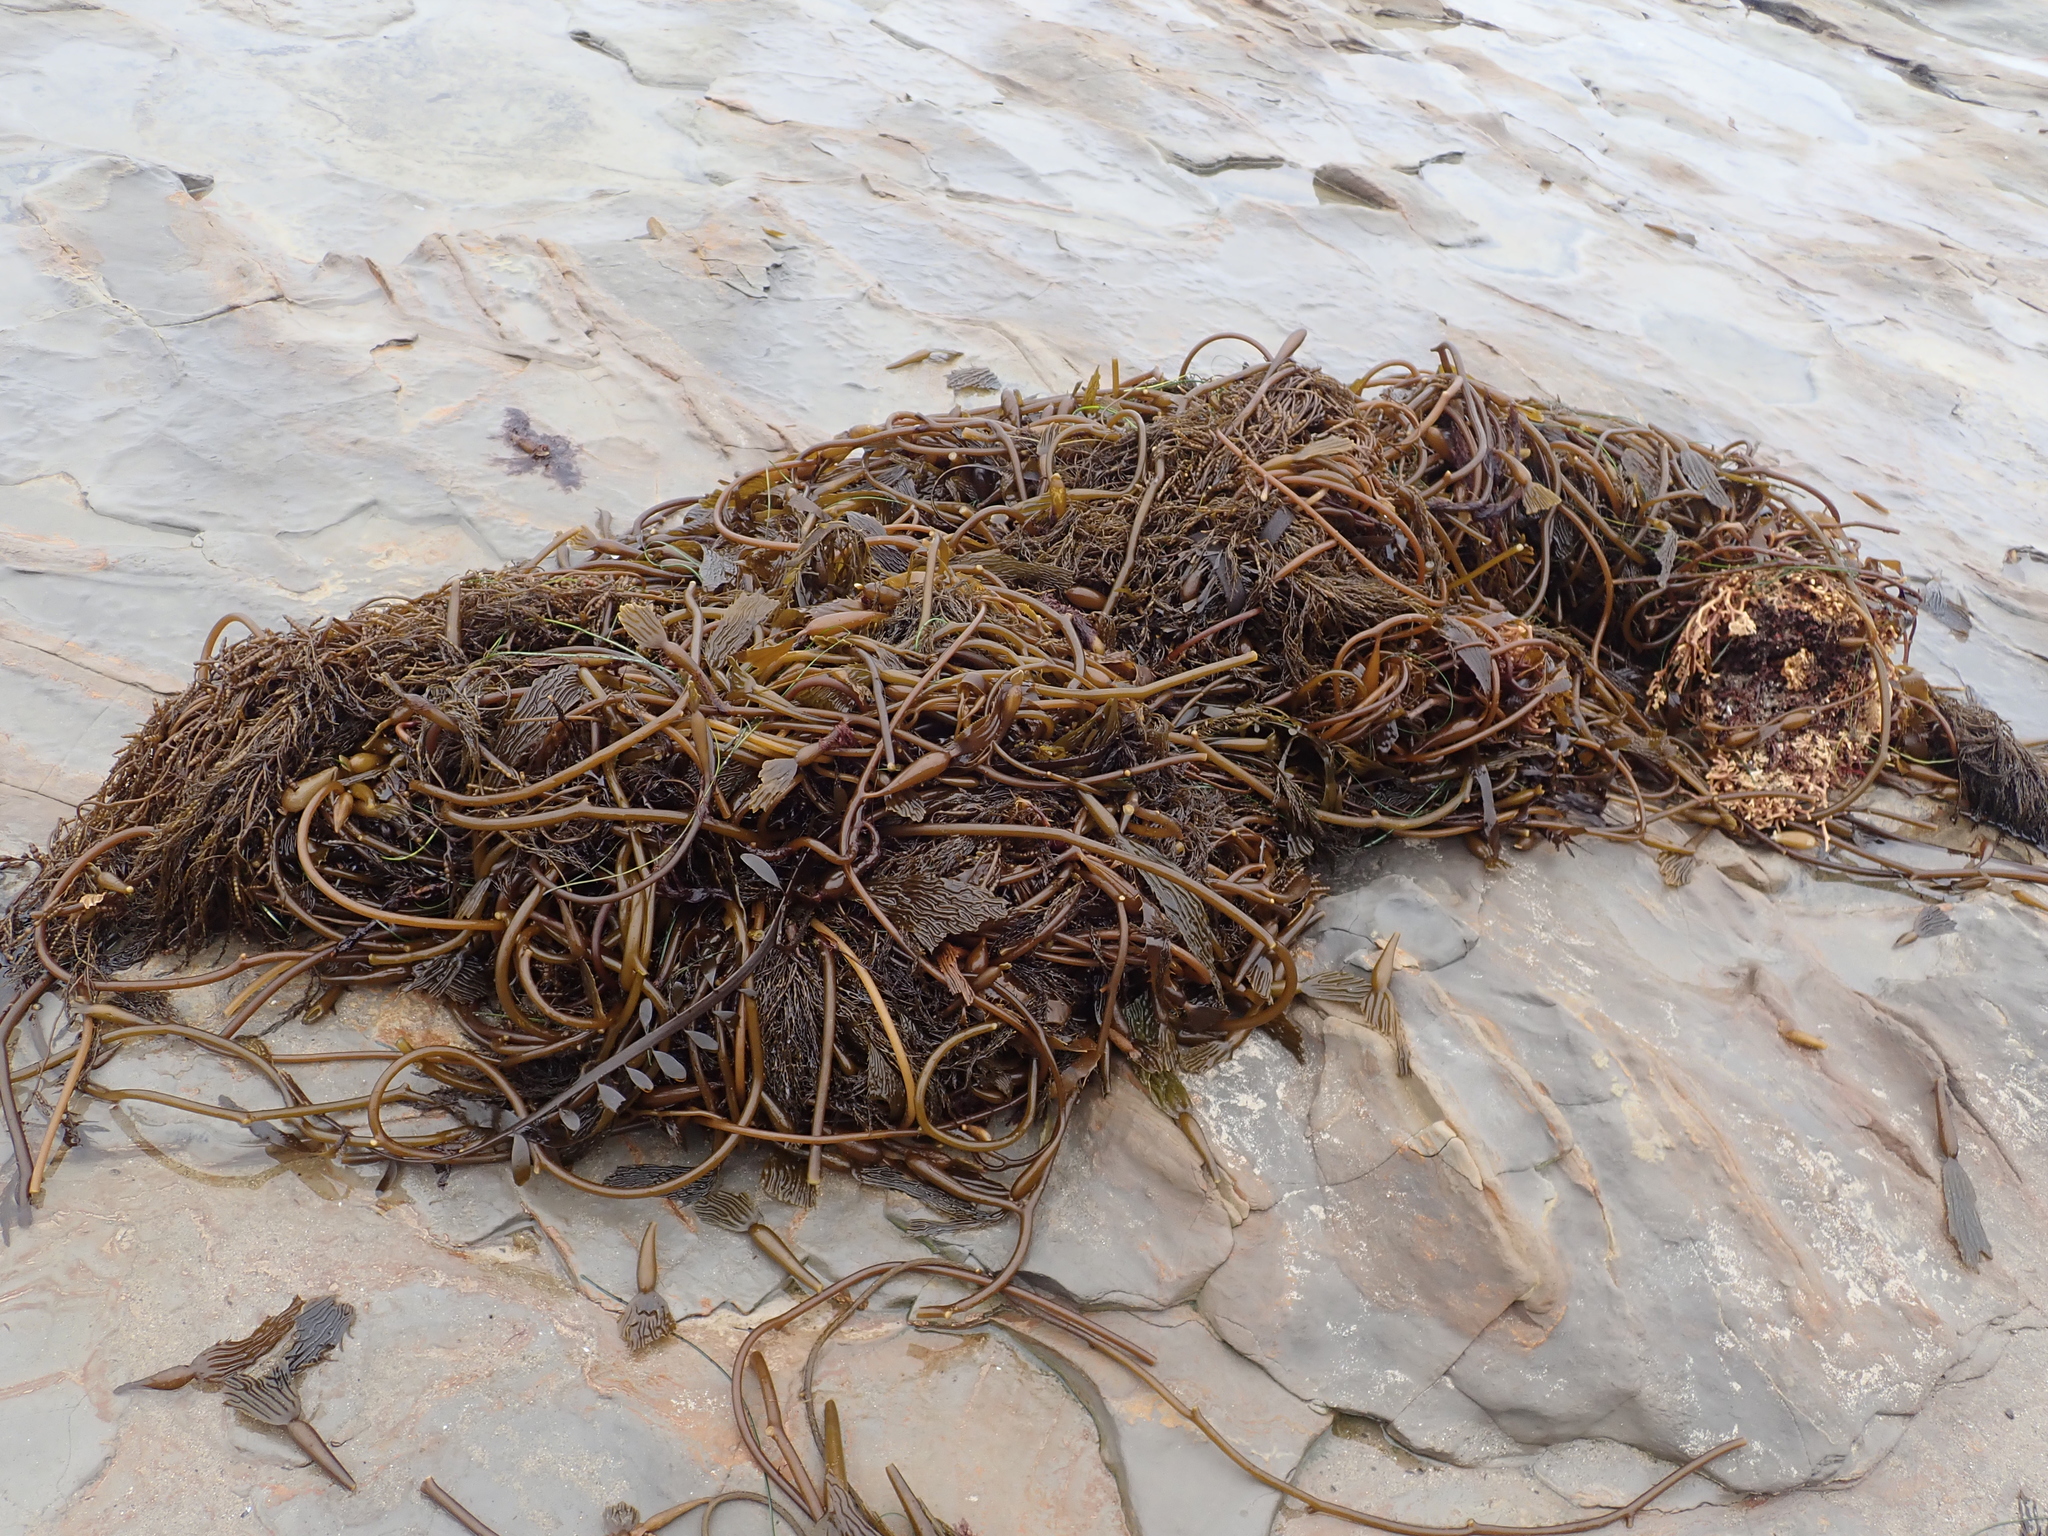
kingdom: Chromista
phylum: Ochrophyta
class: Phaeophyceae
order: Laminariales
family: Laminariaceae
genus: Macrocystis
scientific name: Macrocystis pyrifera
